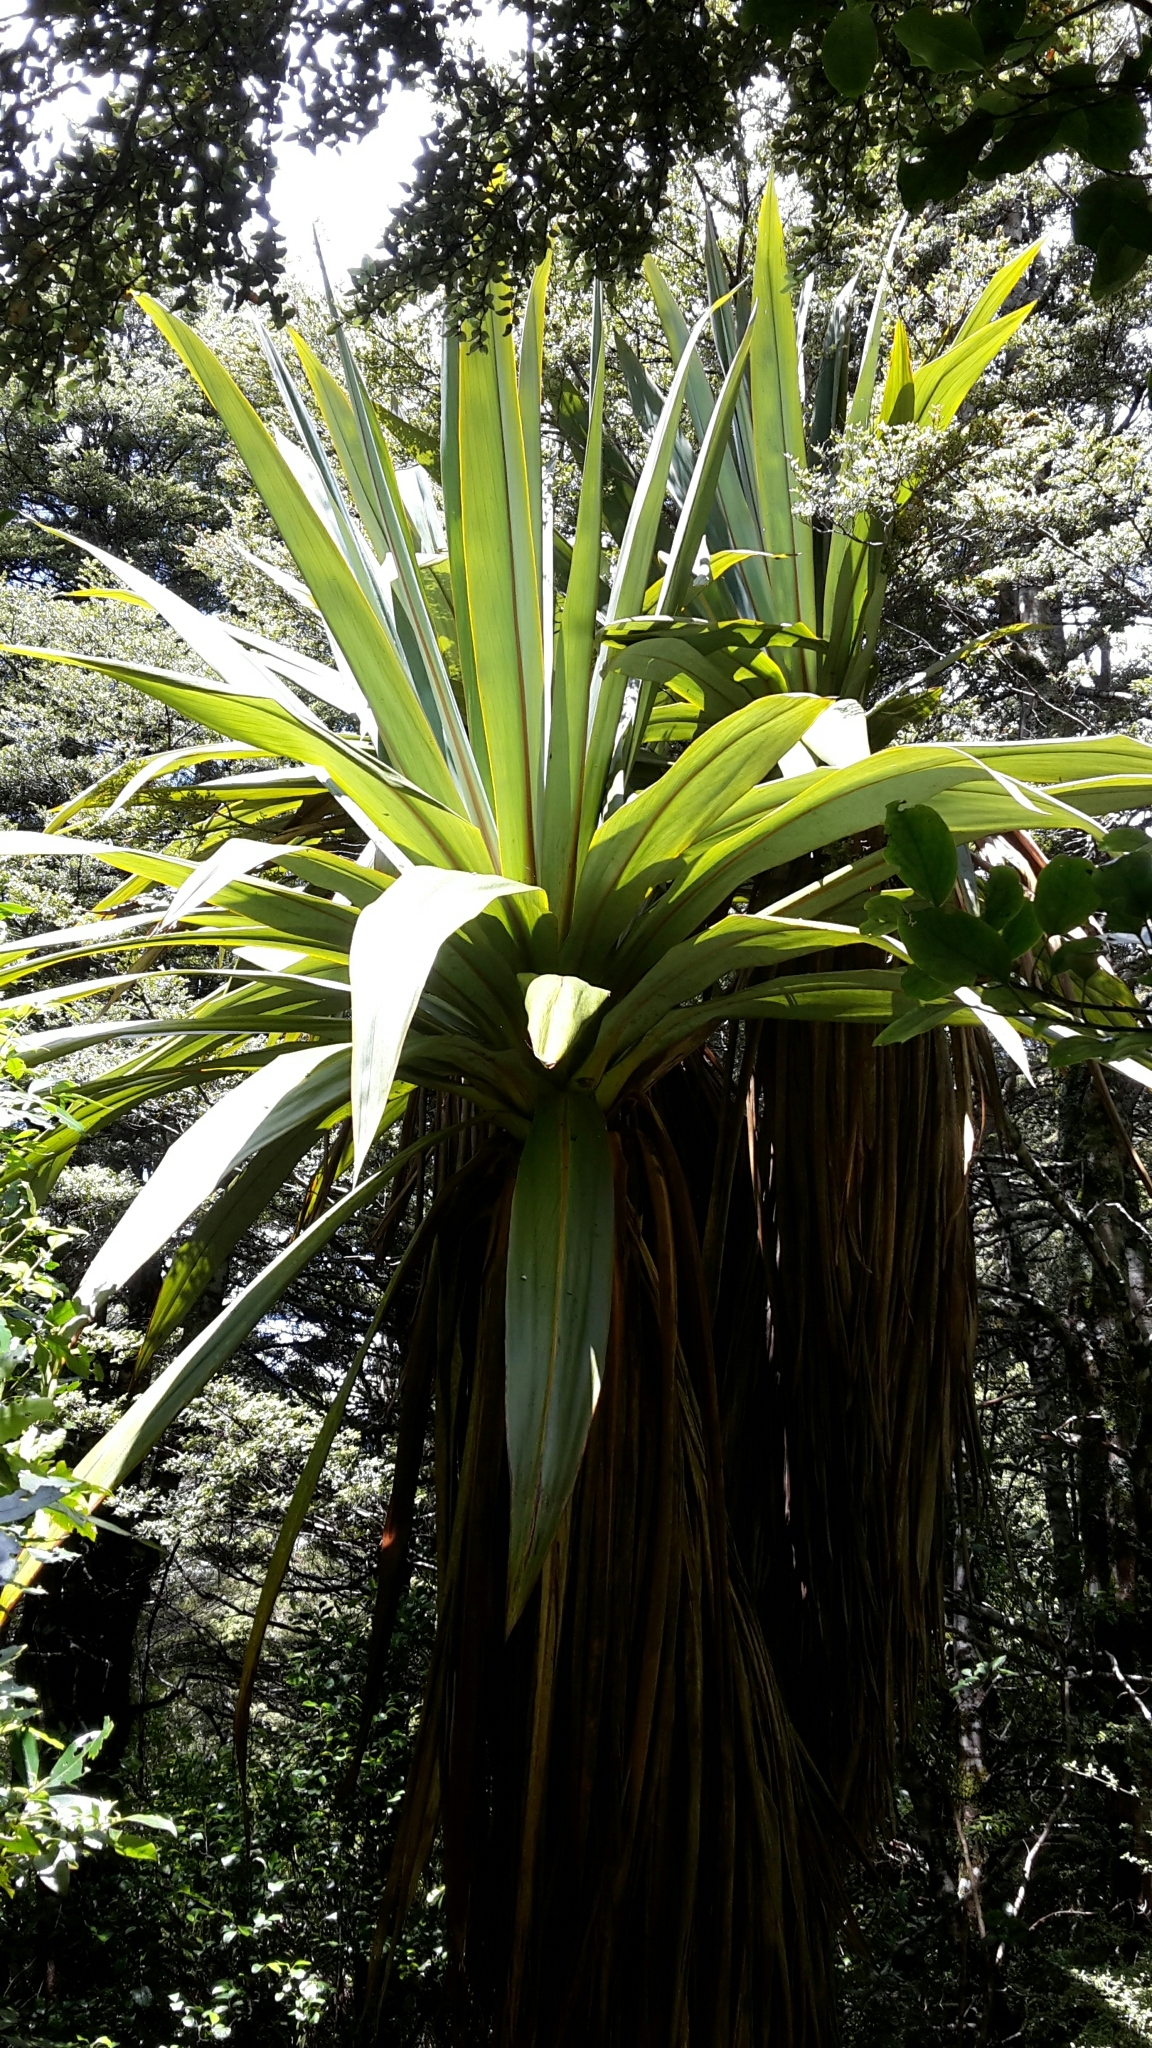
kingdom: Plantae
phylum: Tracheophyta
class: Liliopsida
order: Asparagales
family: Asparagaceae
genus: Cordyline
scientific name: Cordyline indivisa
